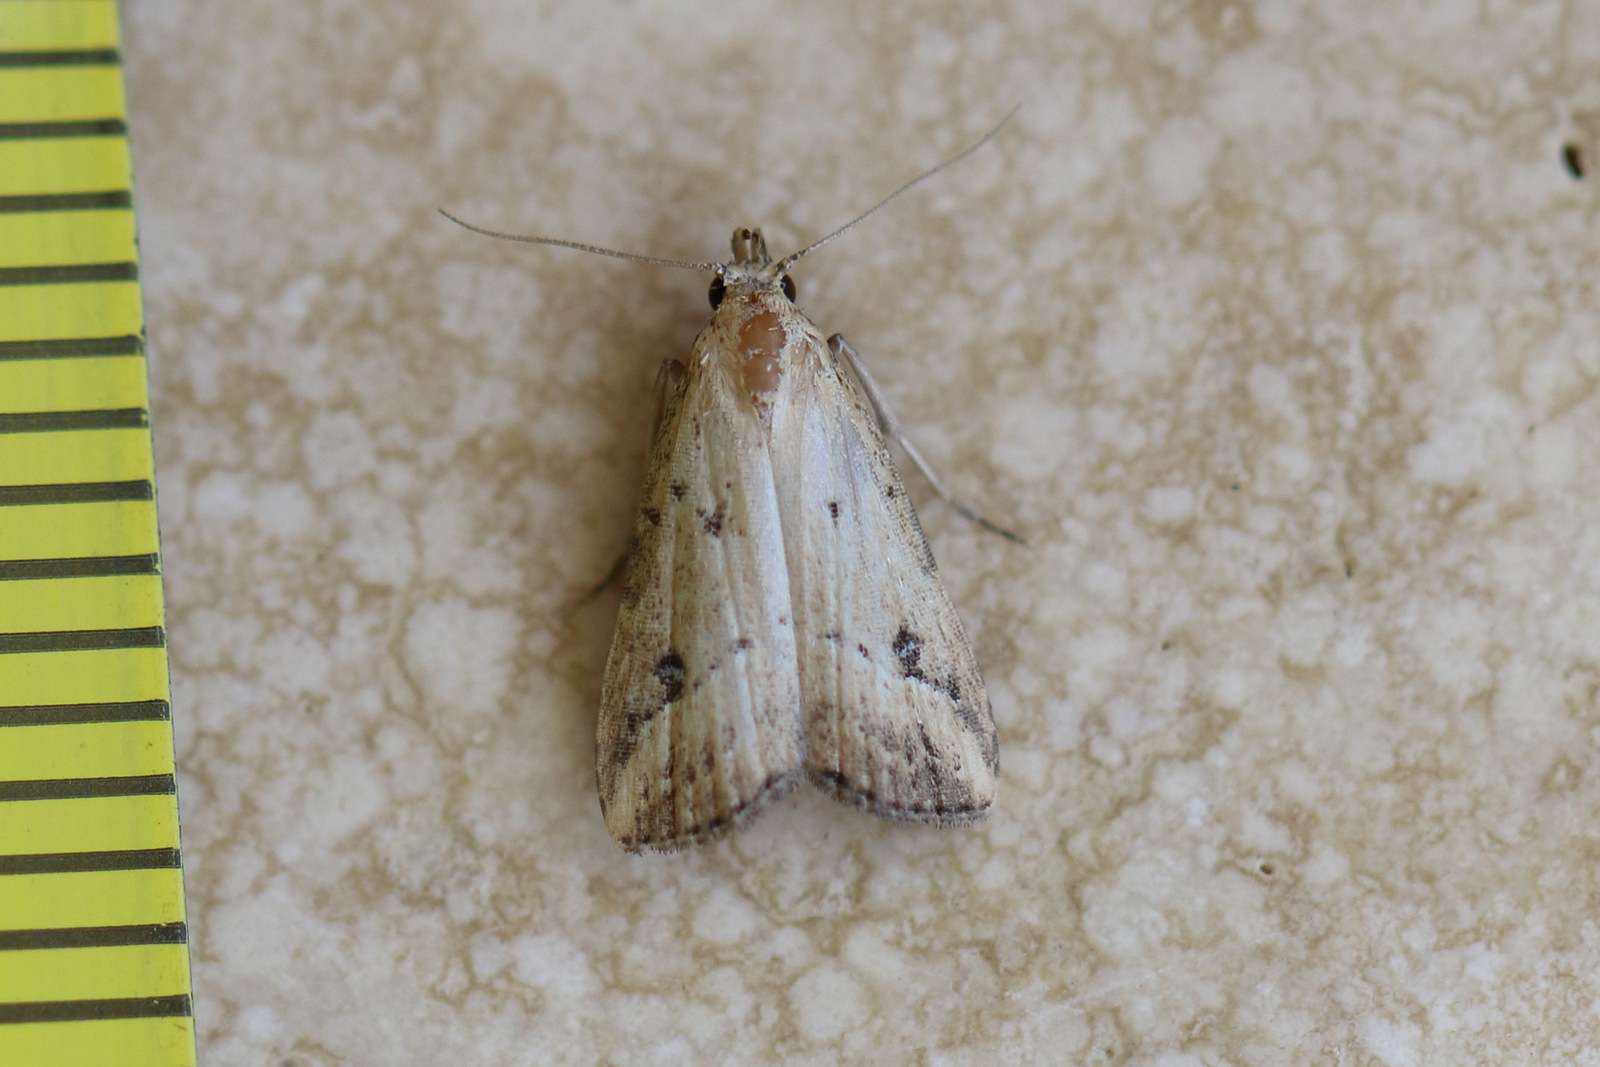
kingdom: Animalia
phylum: Arthropoda
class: Insecta
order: Lepidoptera
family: Erebidae
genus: Luceria
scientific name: Luceria oculalis
